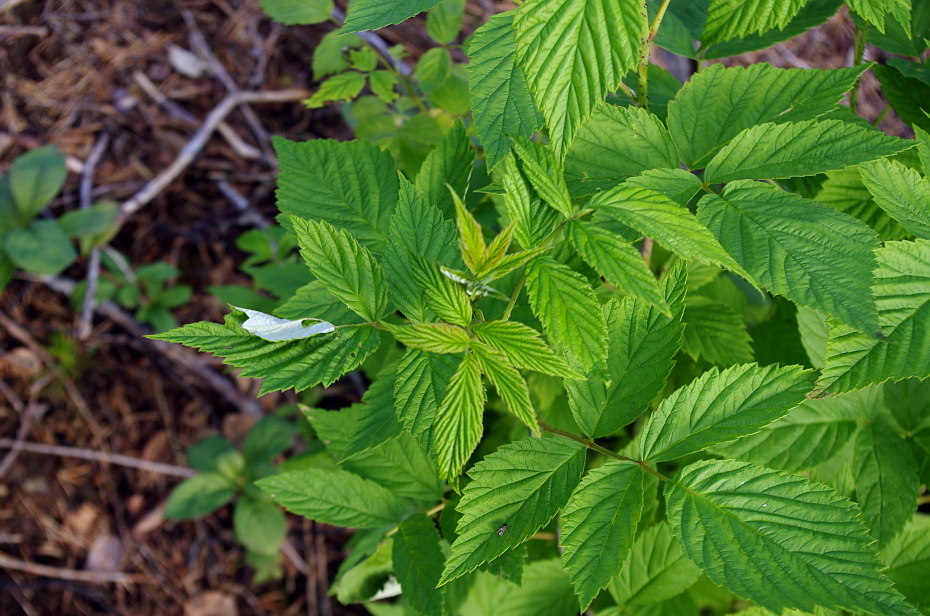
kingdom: Plantae
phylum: Tracheophyta
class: Magnoliopsida
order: Rosales
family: Rosaceae
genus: Rubus
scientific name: Rubus idaeus
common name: Raspberry
